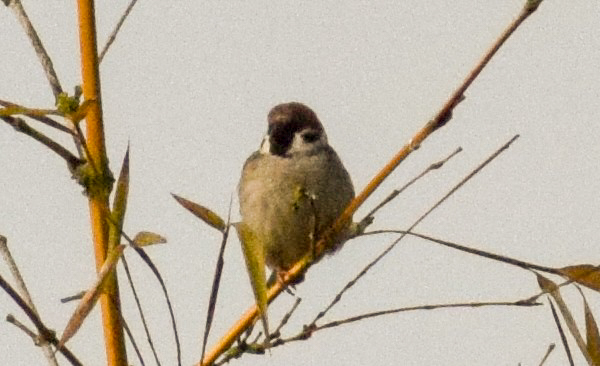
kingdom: Animalia
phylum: Chordata
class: Aves
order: Passeriformes
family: Passeridae
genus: Passer
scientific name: Passer montanus
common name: Eurasian tree sparrow
